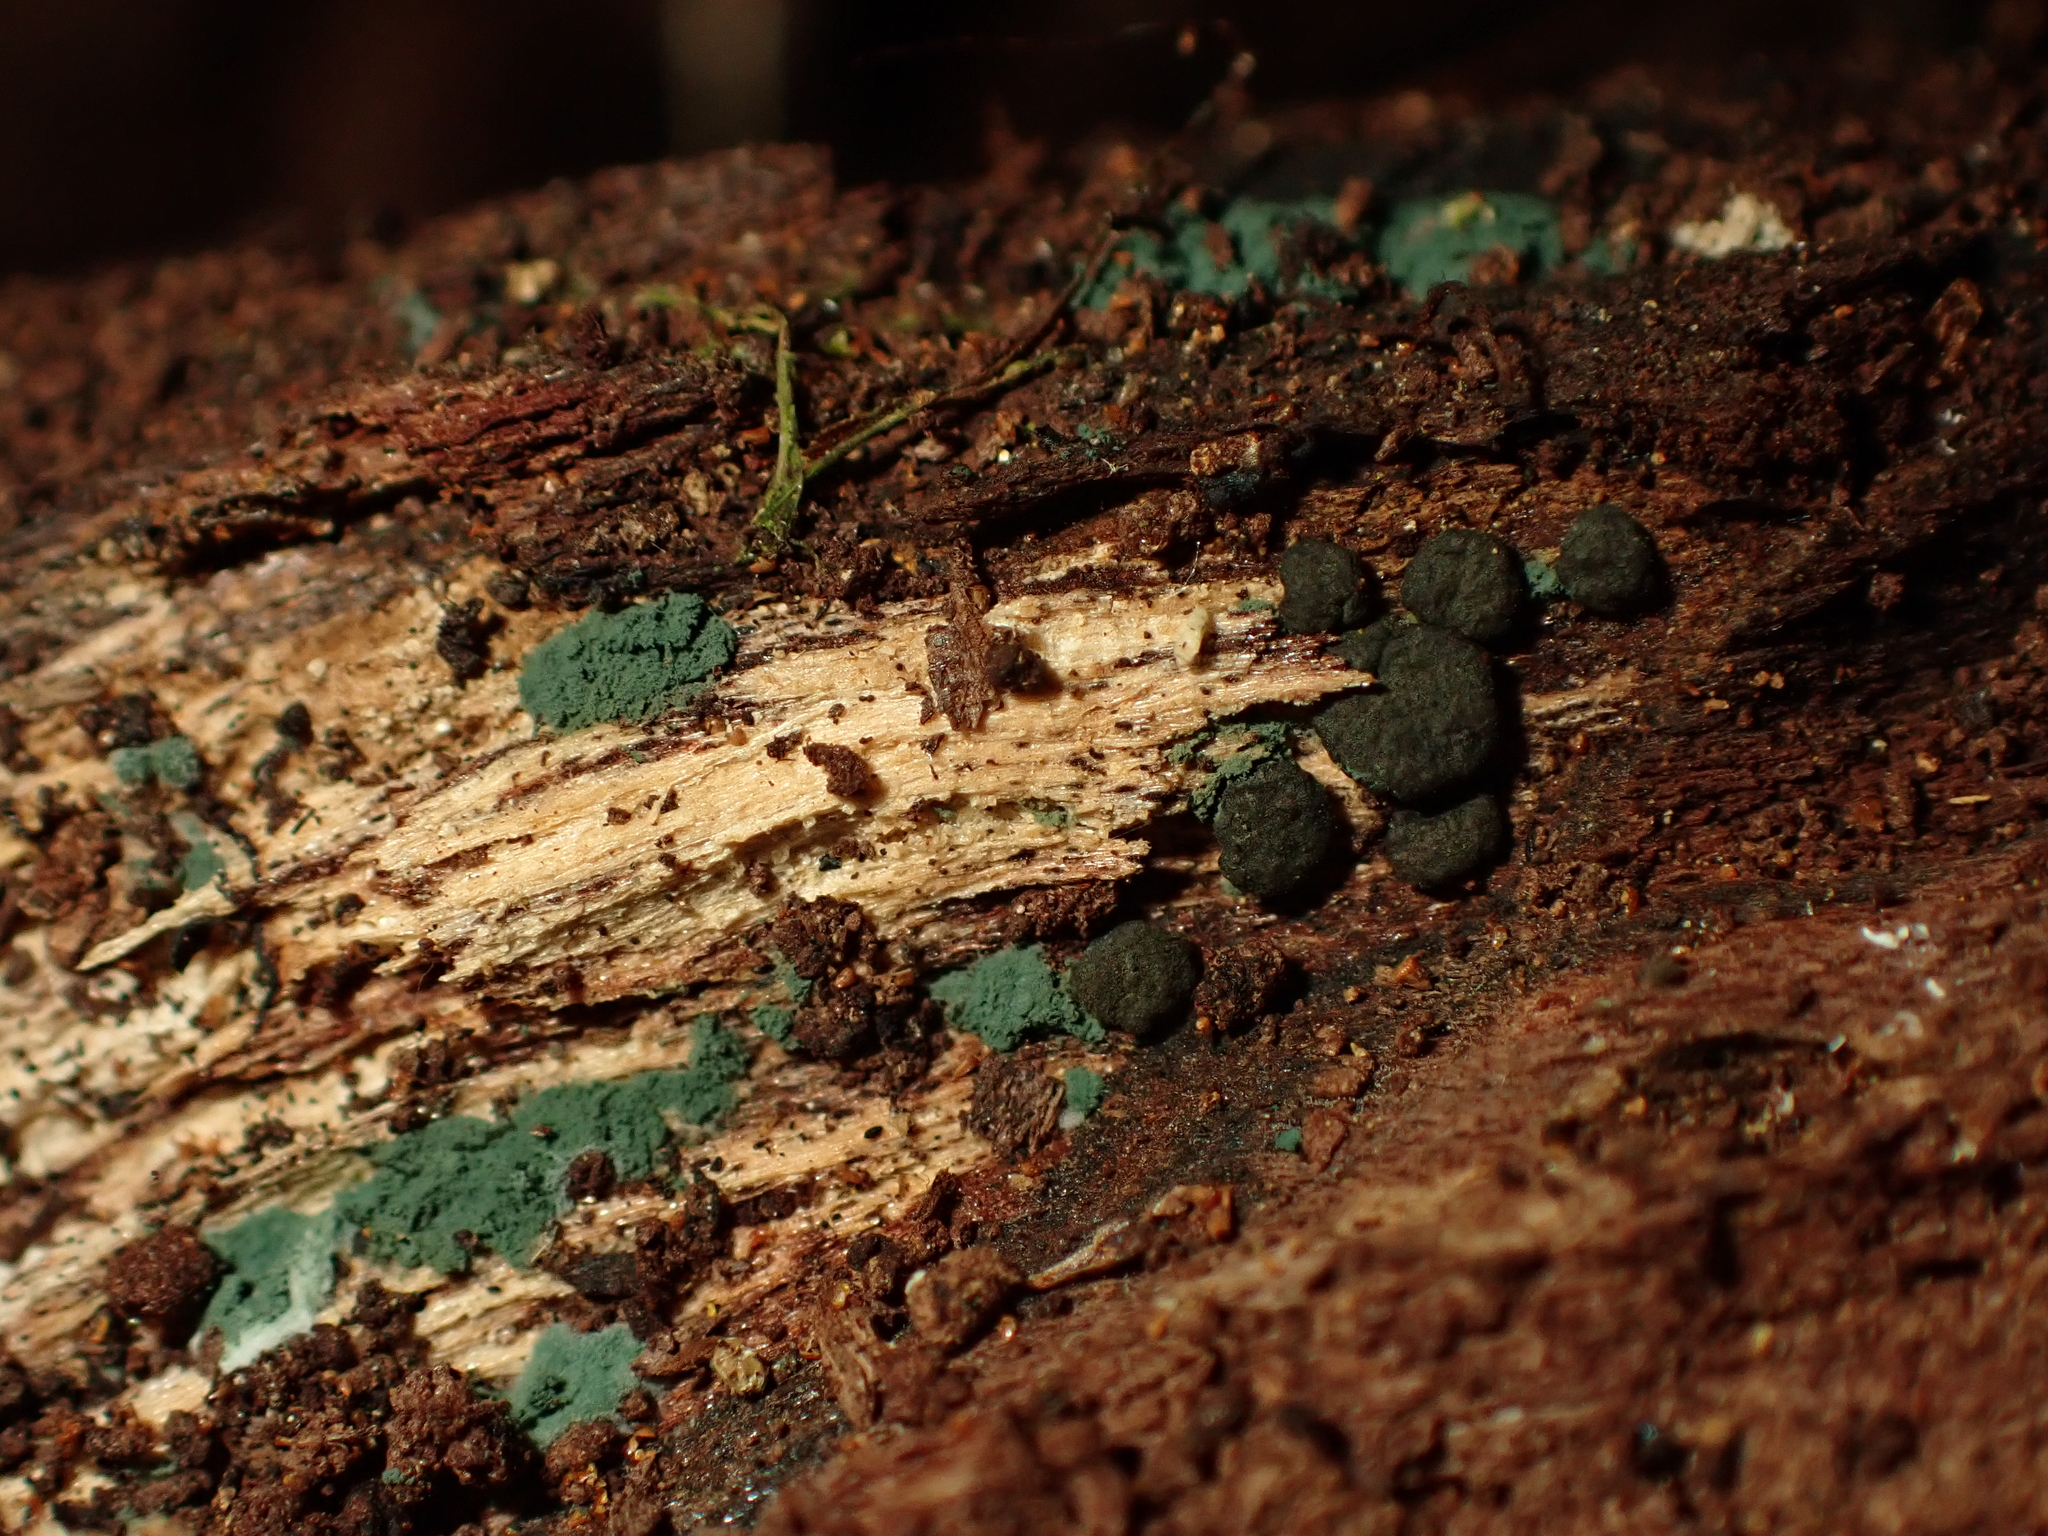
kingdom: Fungi
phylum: Ascomycota
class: Sordariomycetes
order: Hypocreales
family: Hypocreaceae
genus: Trichoderma
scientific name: Trichoderma
